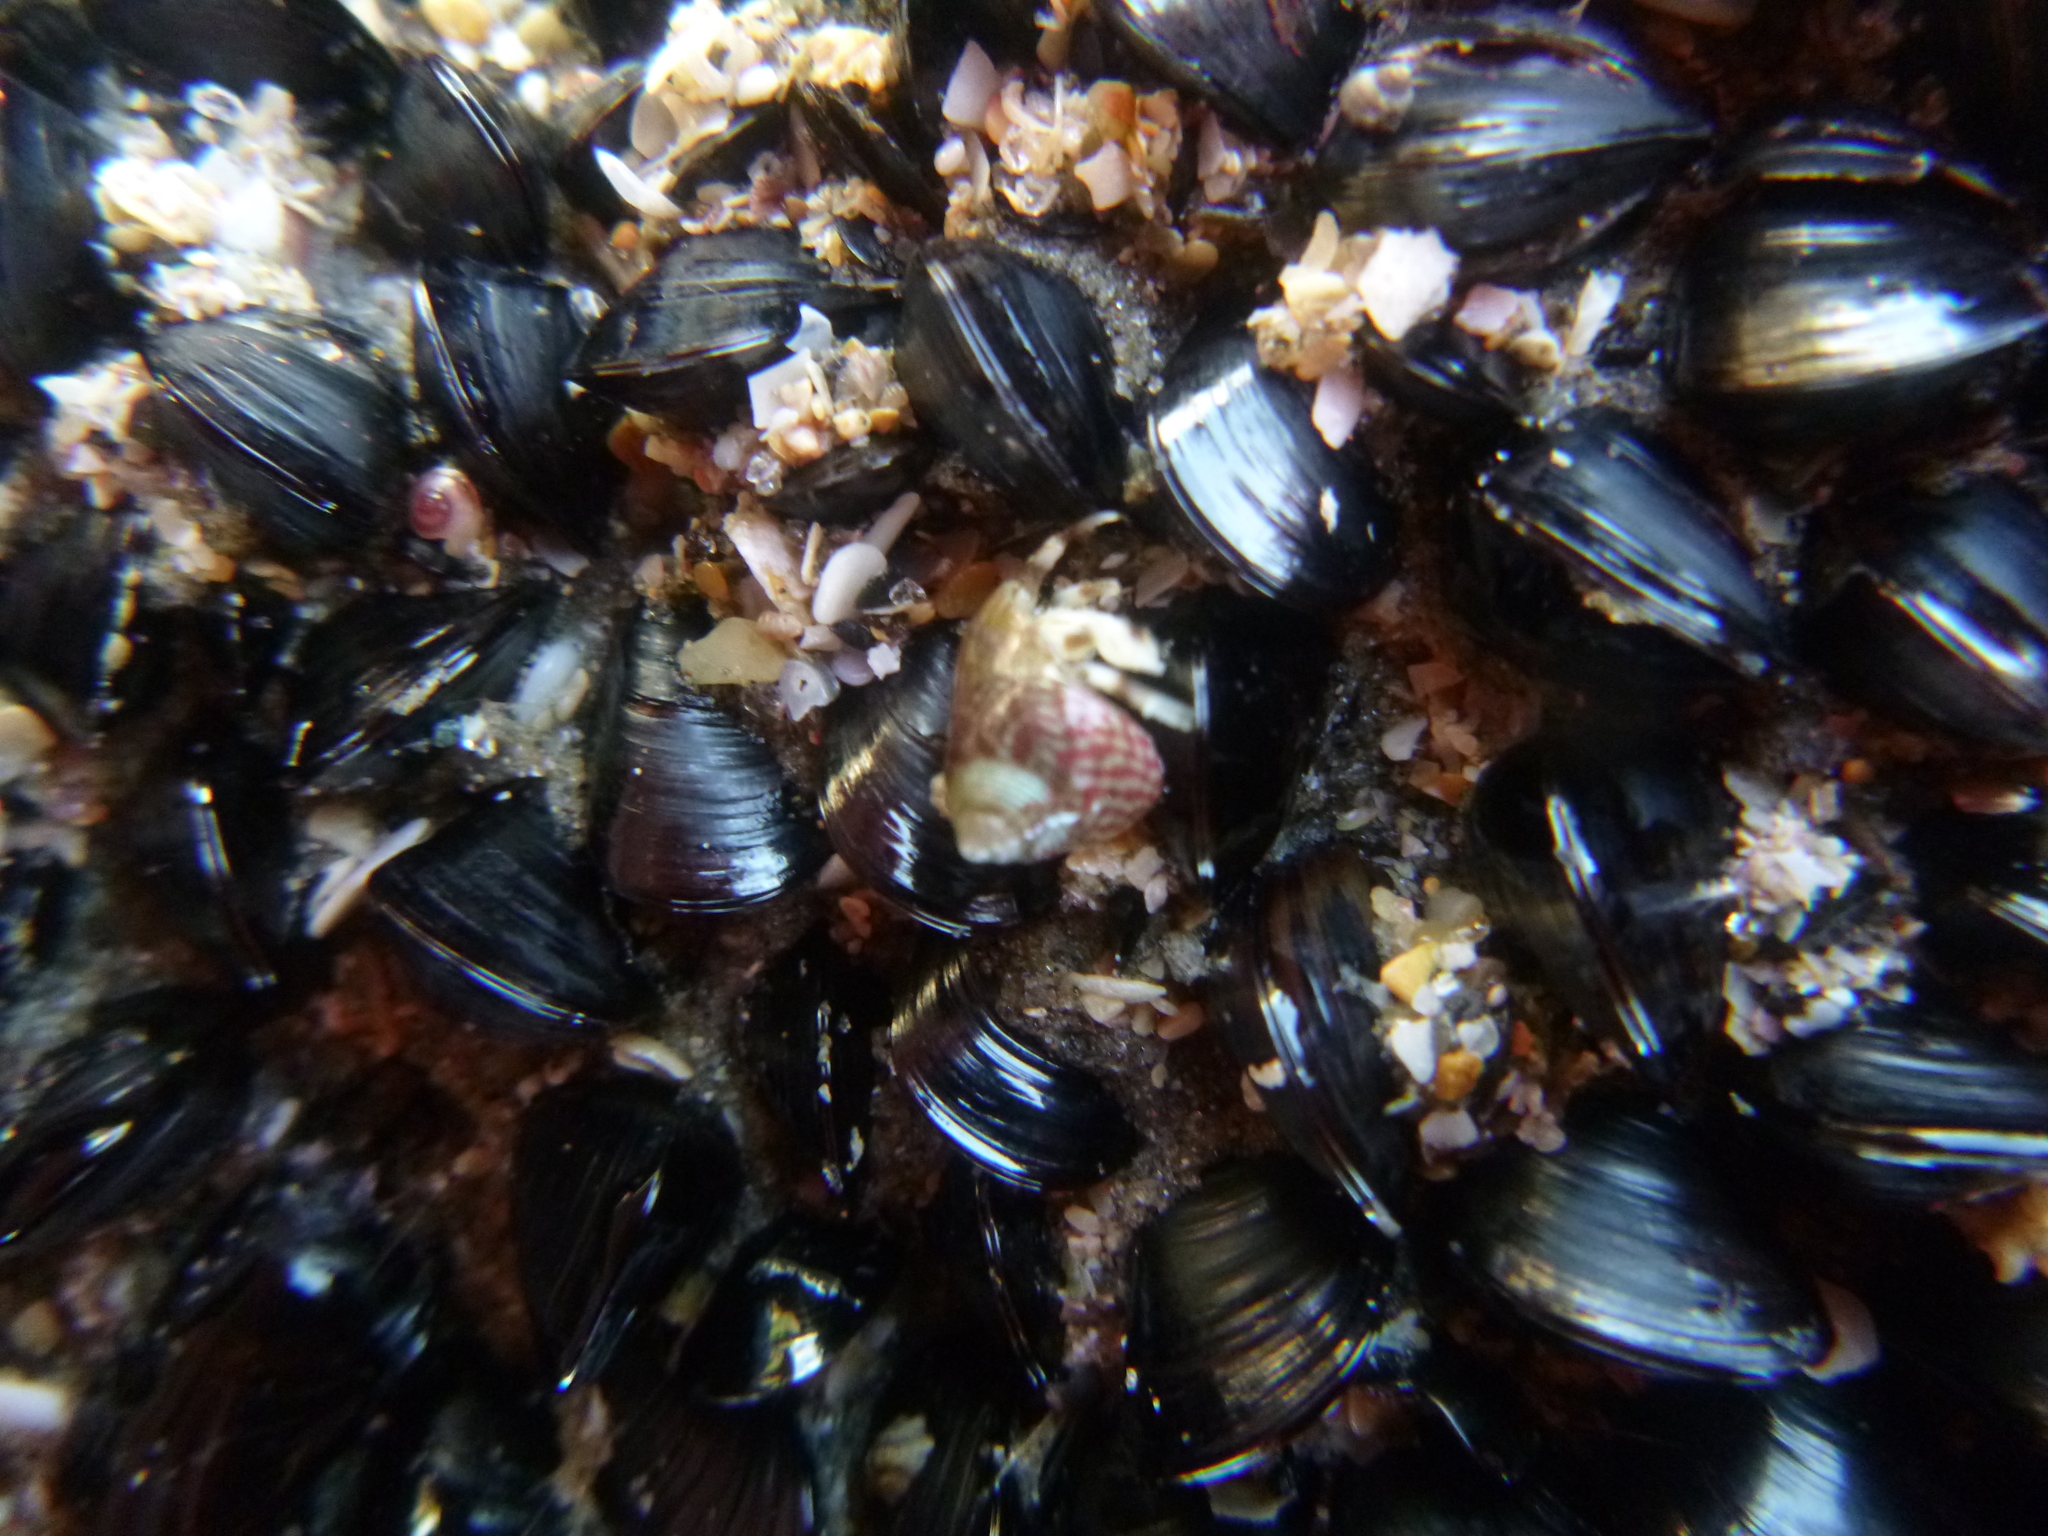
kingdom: Animalia
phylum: Mollusca
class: Bivalvia
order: Mytilida
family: Mytilidae
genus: Xenostrobus
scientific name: Xenostrobus neozelanicus
